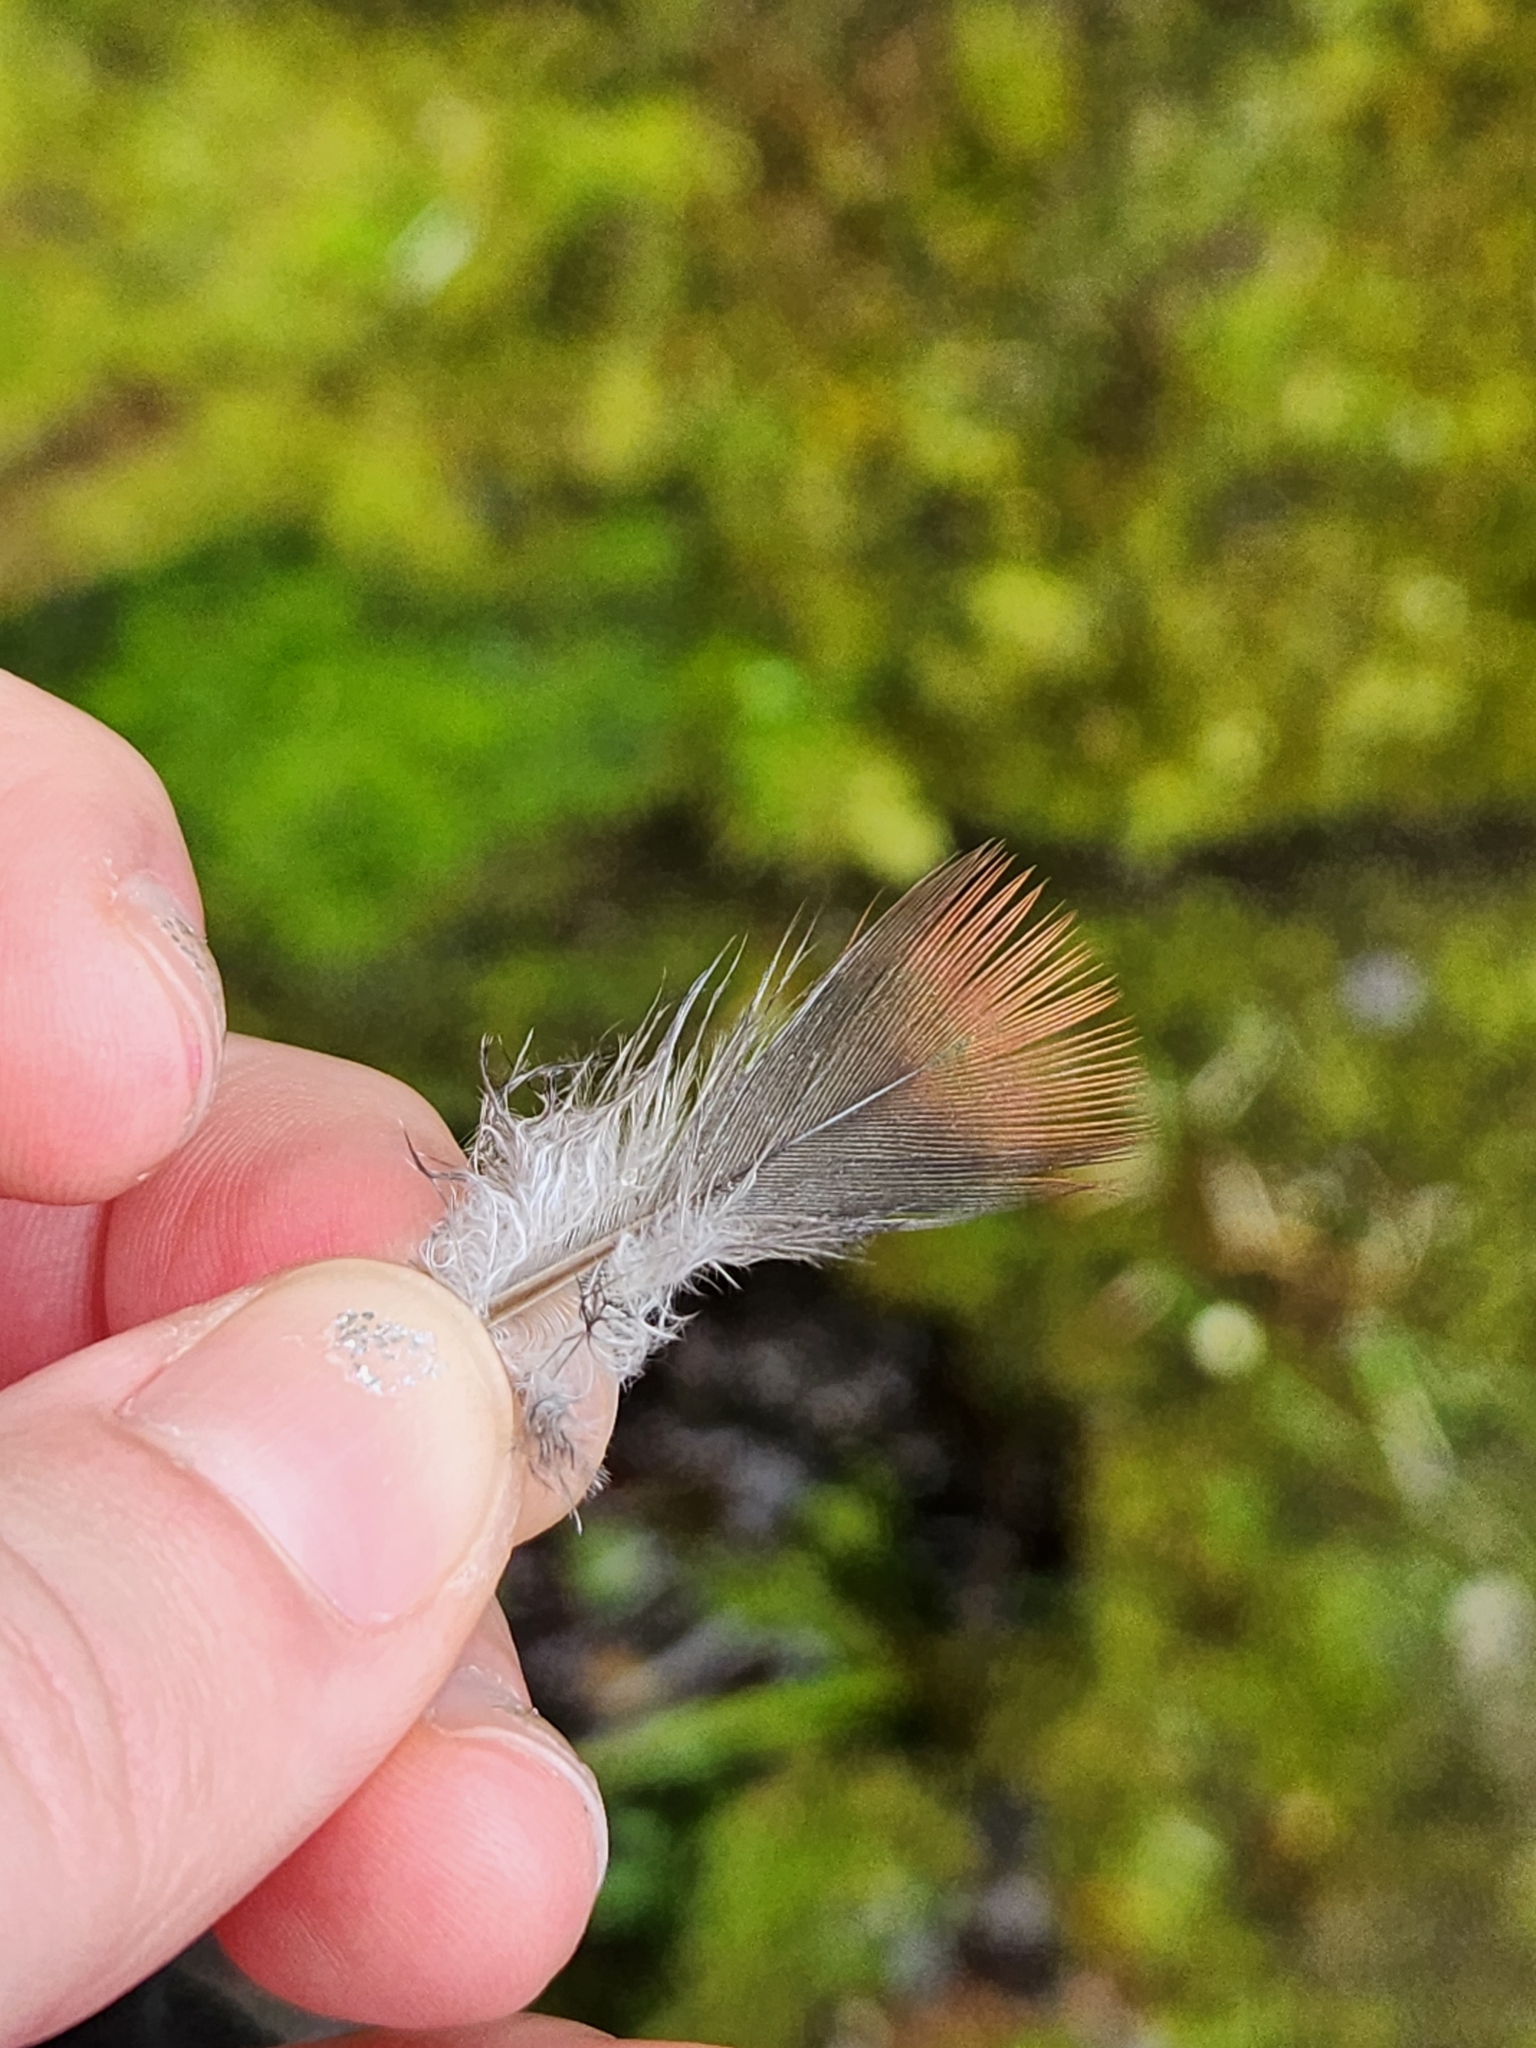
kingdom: Animalia
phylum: Chordata
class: Aves
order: Columbiformes
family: Columbidae
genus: Hemiphaga
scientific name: Hemiphaga novaeseelandiae
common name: New zealand pigeon
